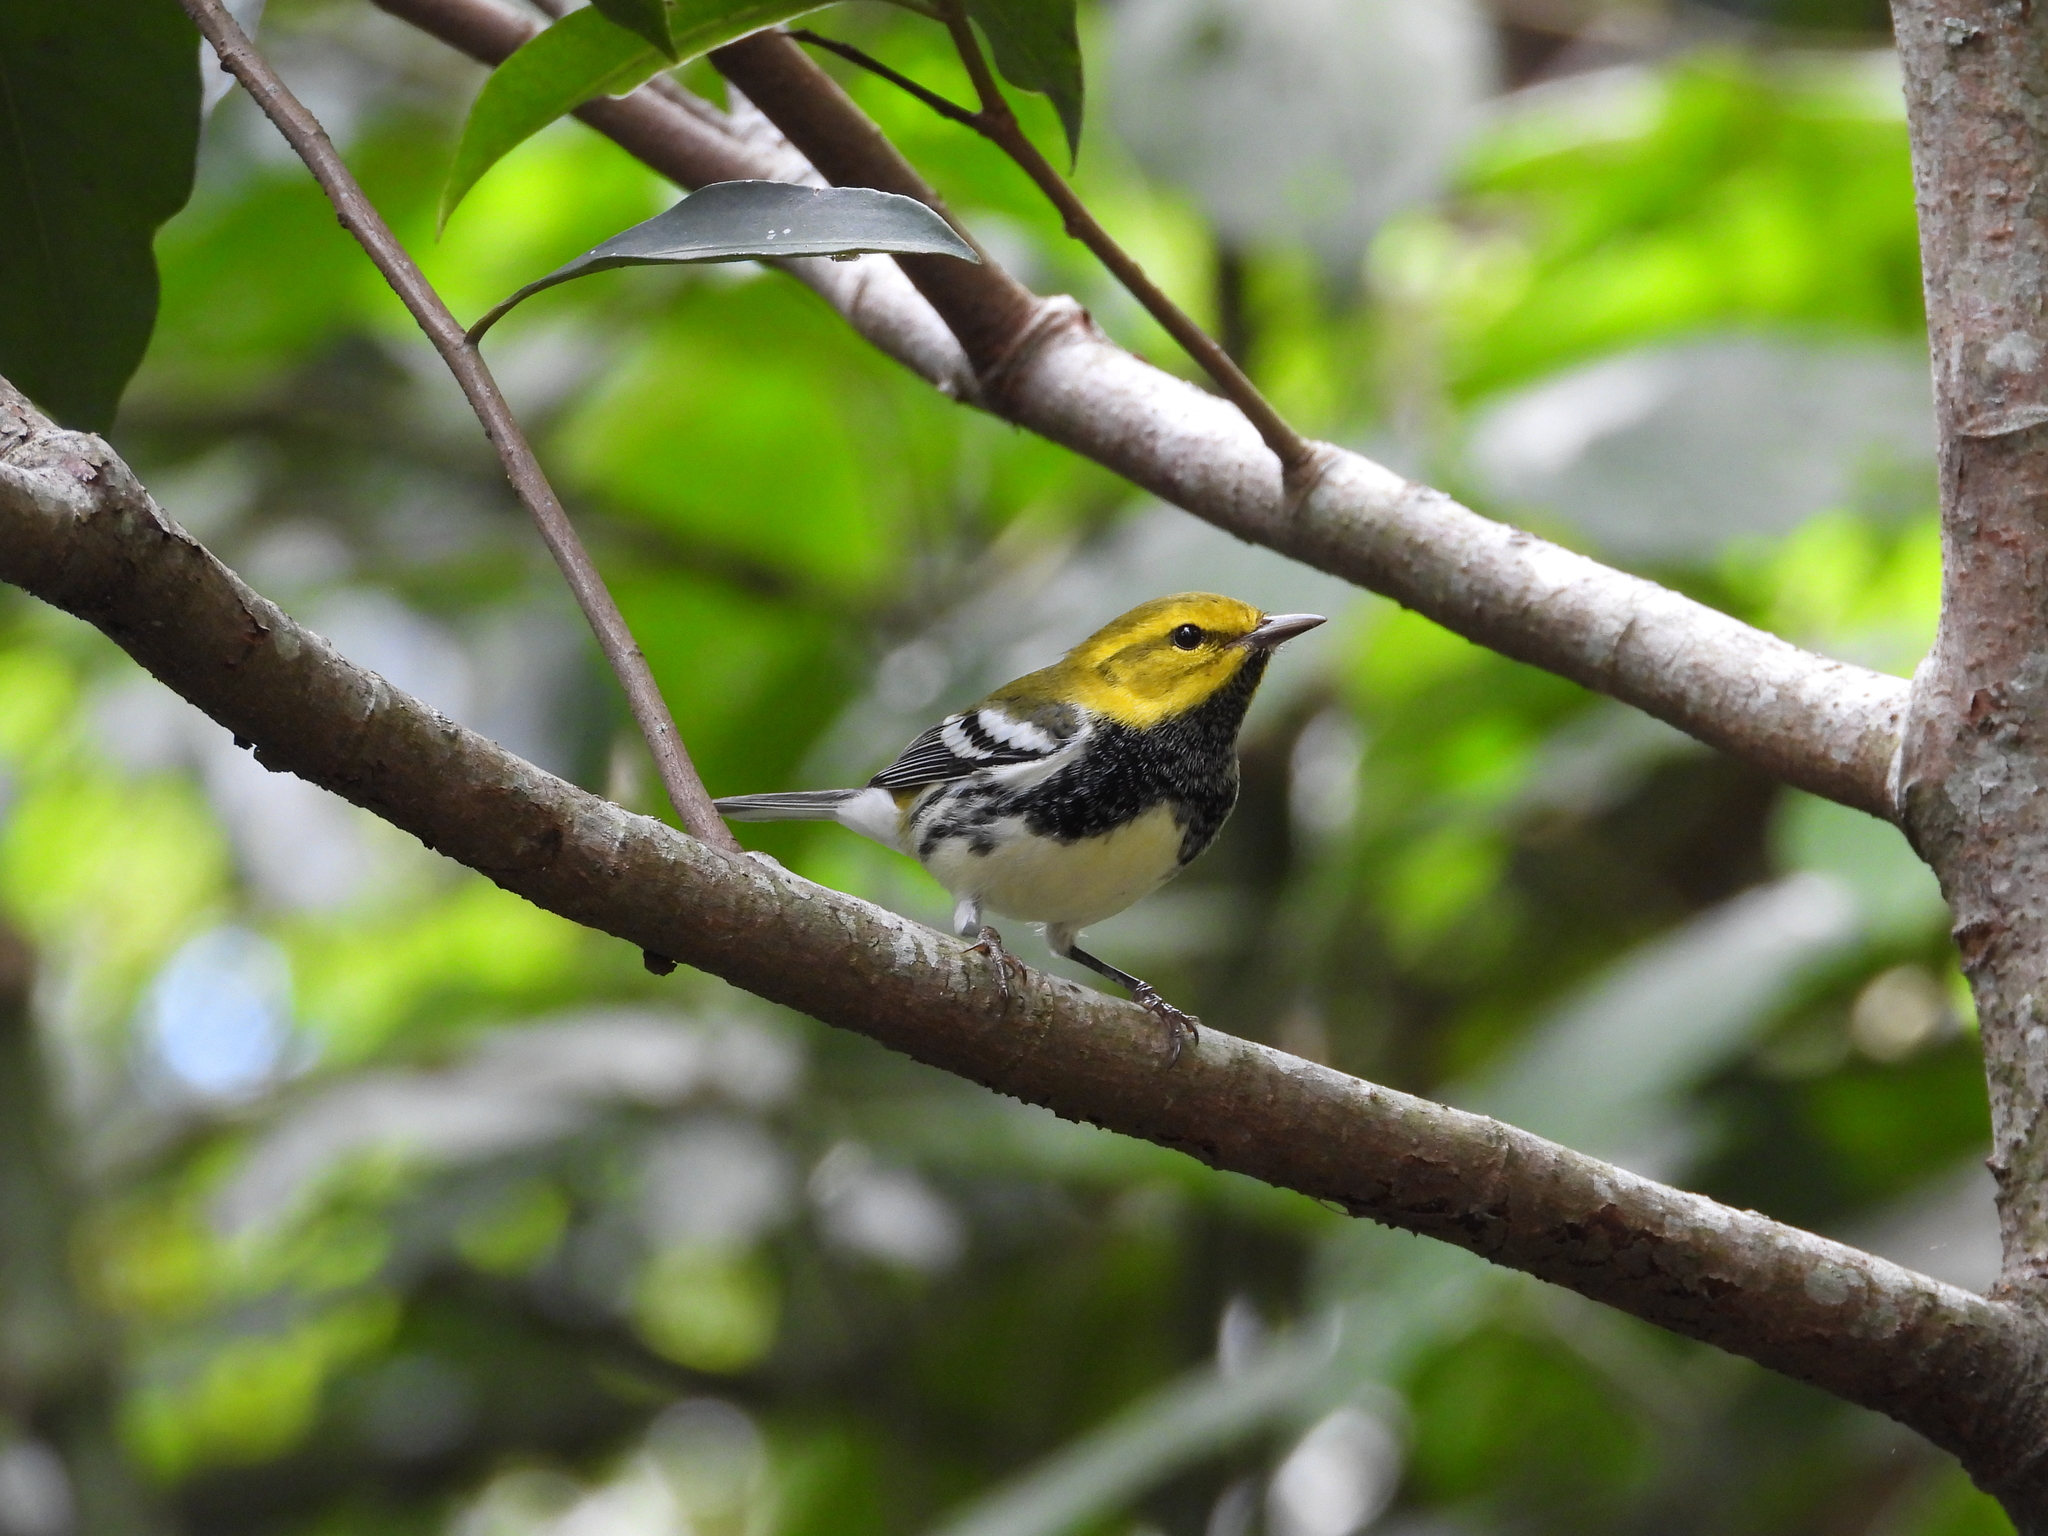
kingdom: Animalia
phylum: Chordata
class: Aves
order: Passeriformes
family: Parulidae
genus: Setophaga
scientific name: Setophaga virens
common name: Black-throated green warbler
